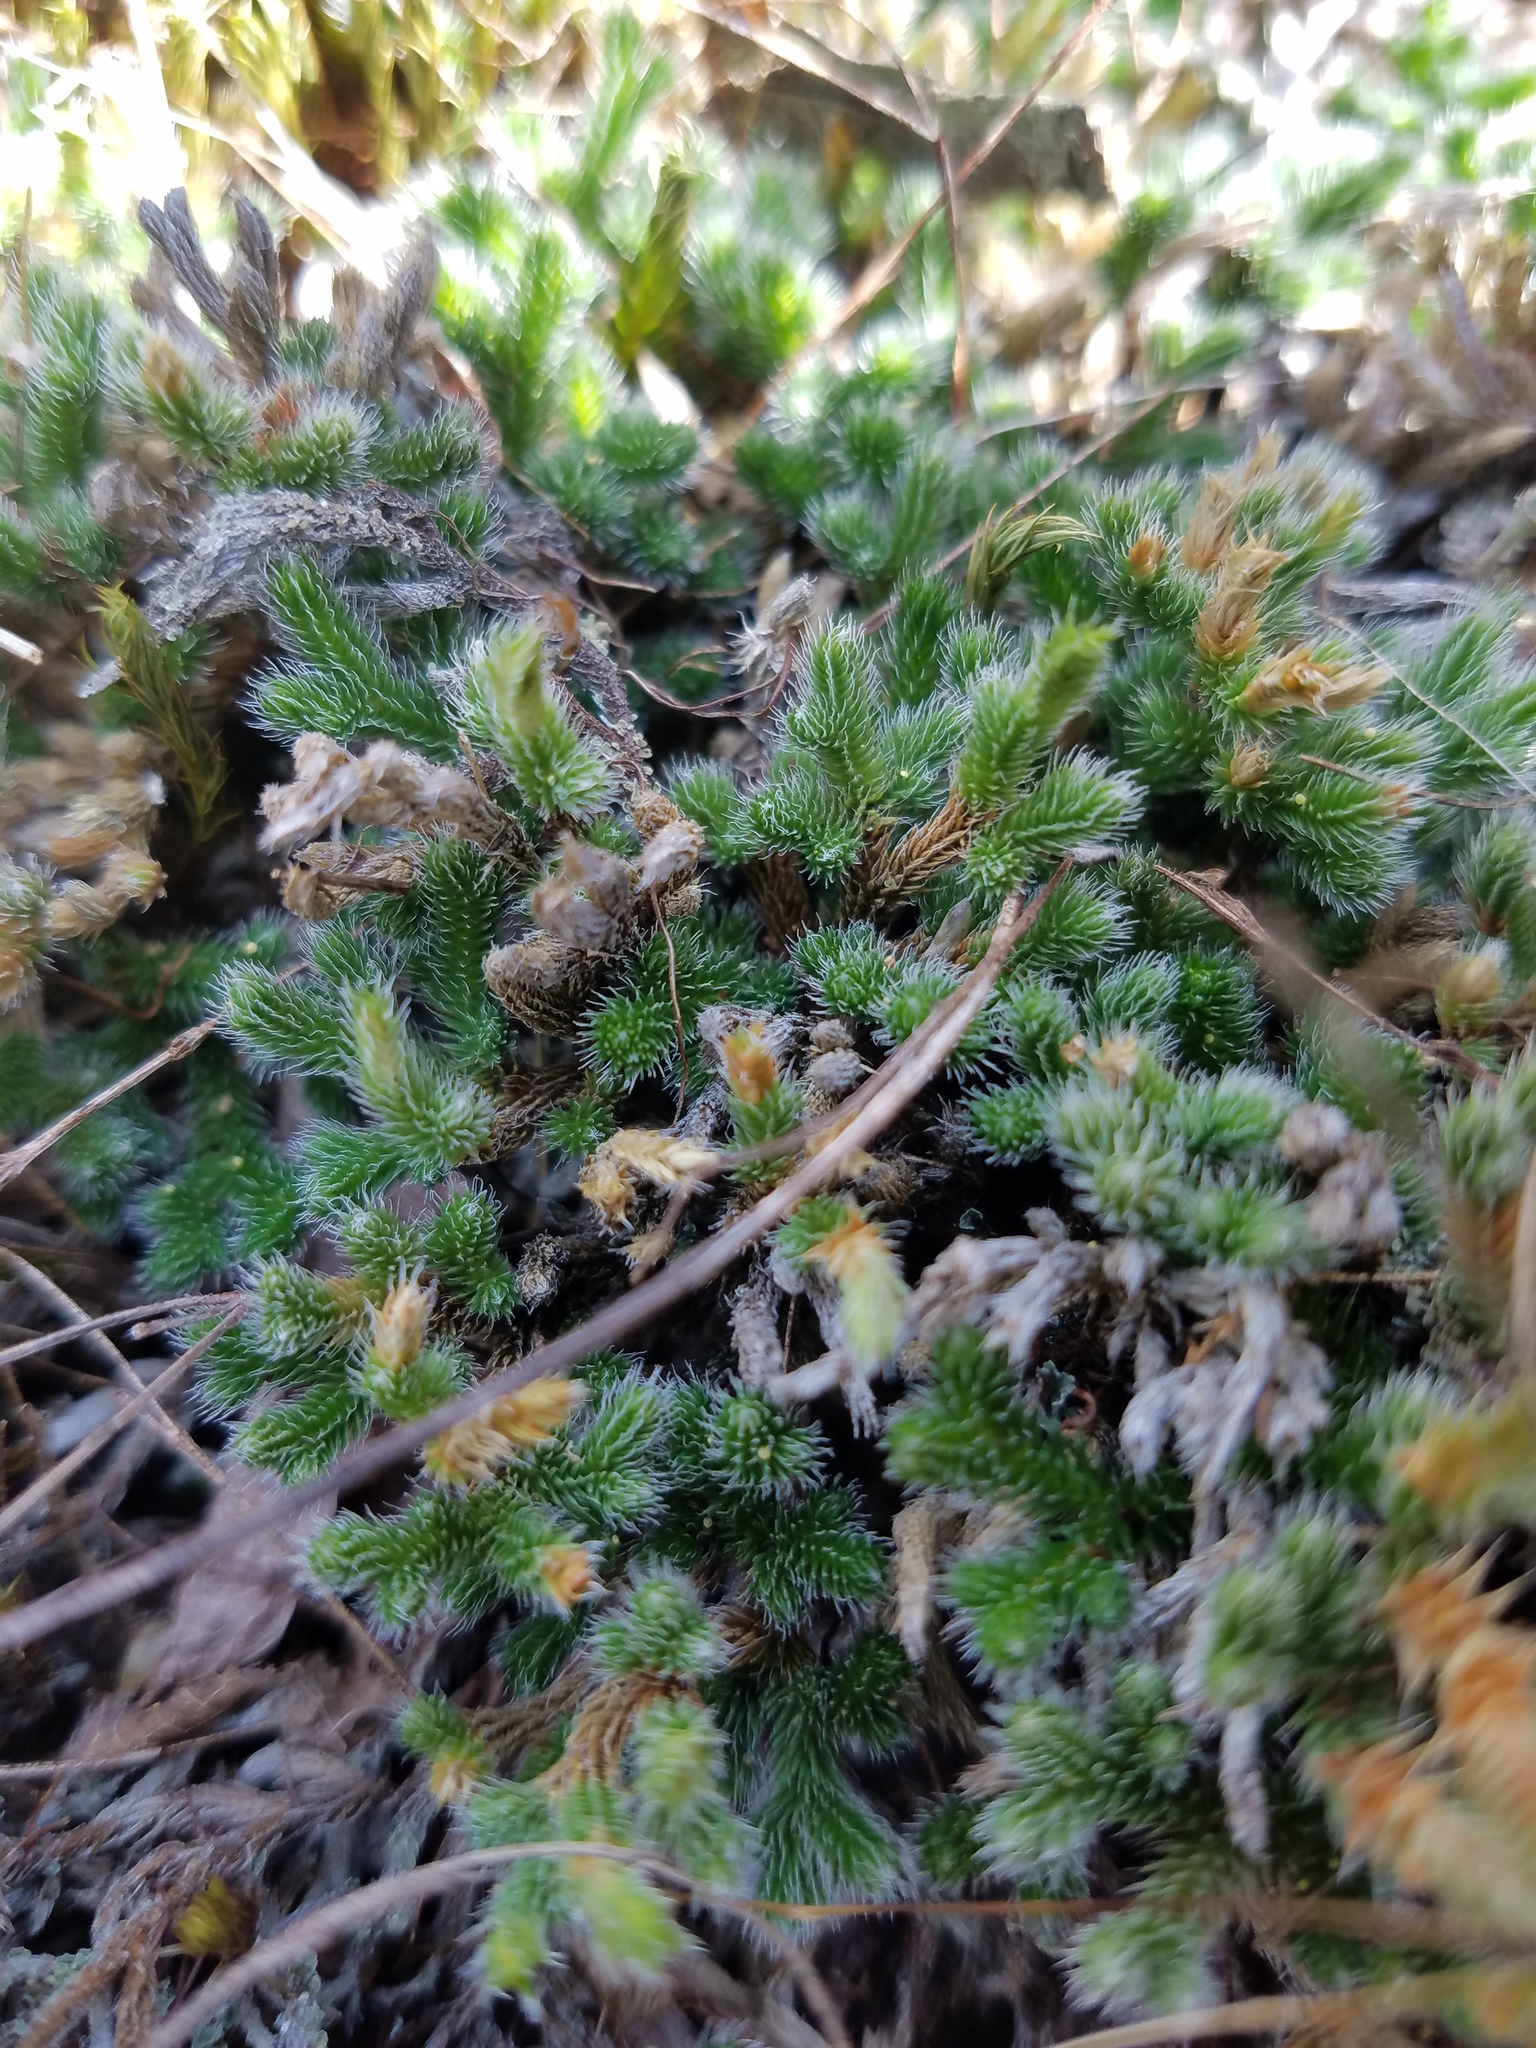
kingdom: Plantae
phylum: Tracheophyta
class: Lycopodiopsida
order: Selaginellales
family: Selaginellaceae
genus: Selaginella
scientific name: Selaginella rupestris
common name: Dwarf spikemoss
